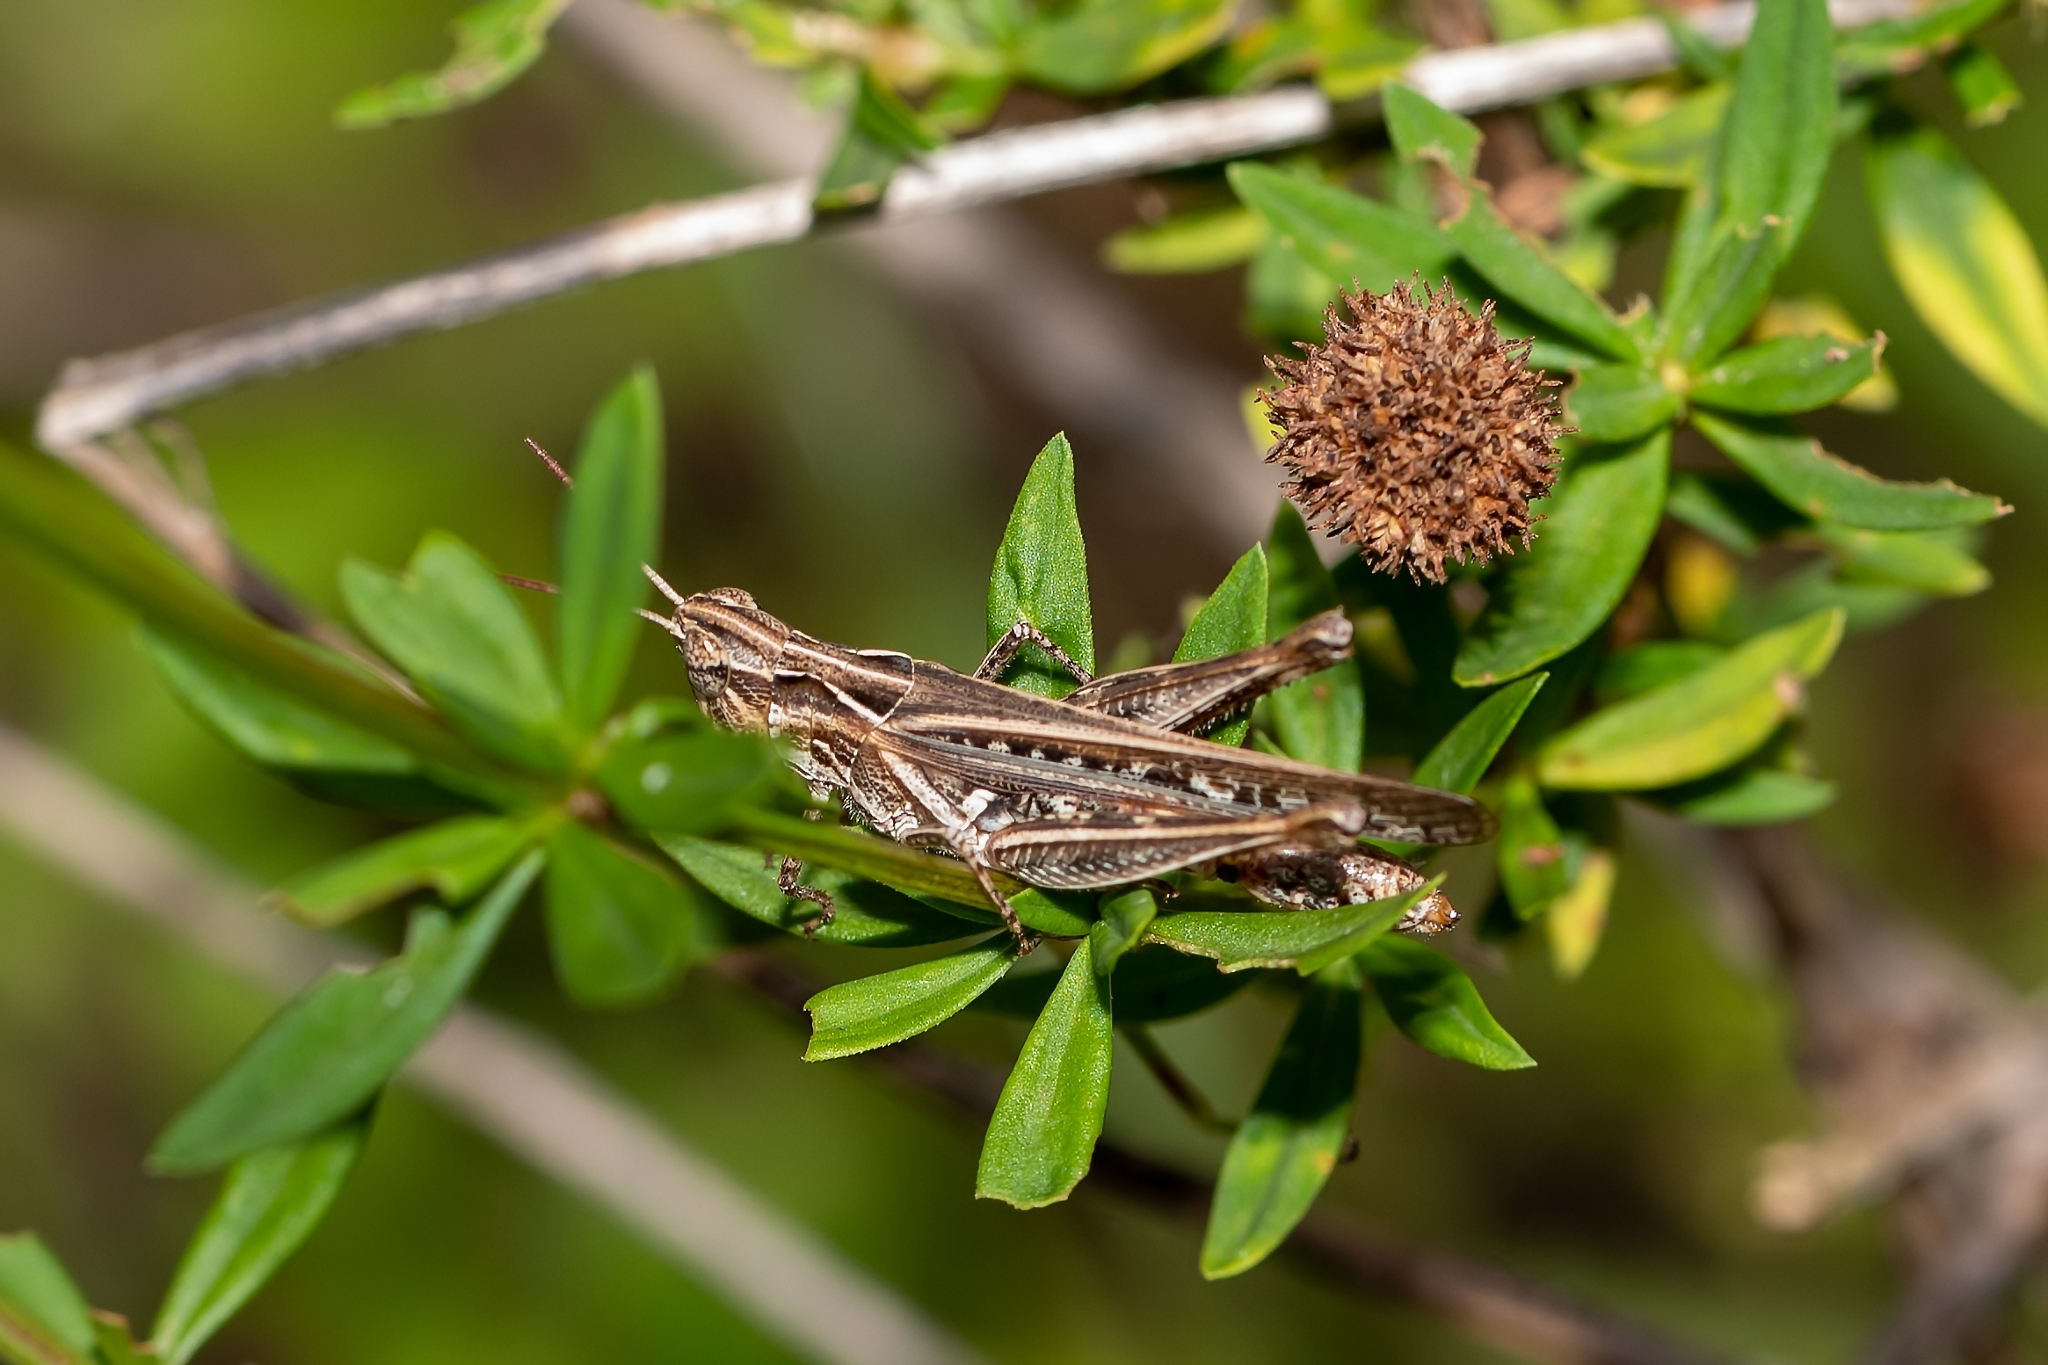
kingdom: Animalia
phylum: Arthropoda
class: Insecta
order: Orthoptera
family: Acrididae
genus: Orphulella
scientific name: Orphulella pelidna
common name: Spotted-wing grasshopper
